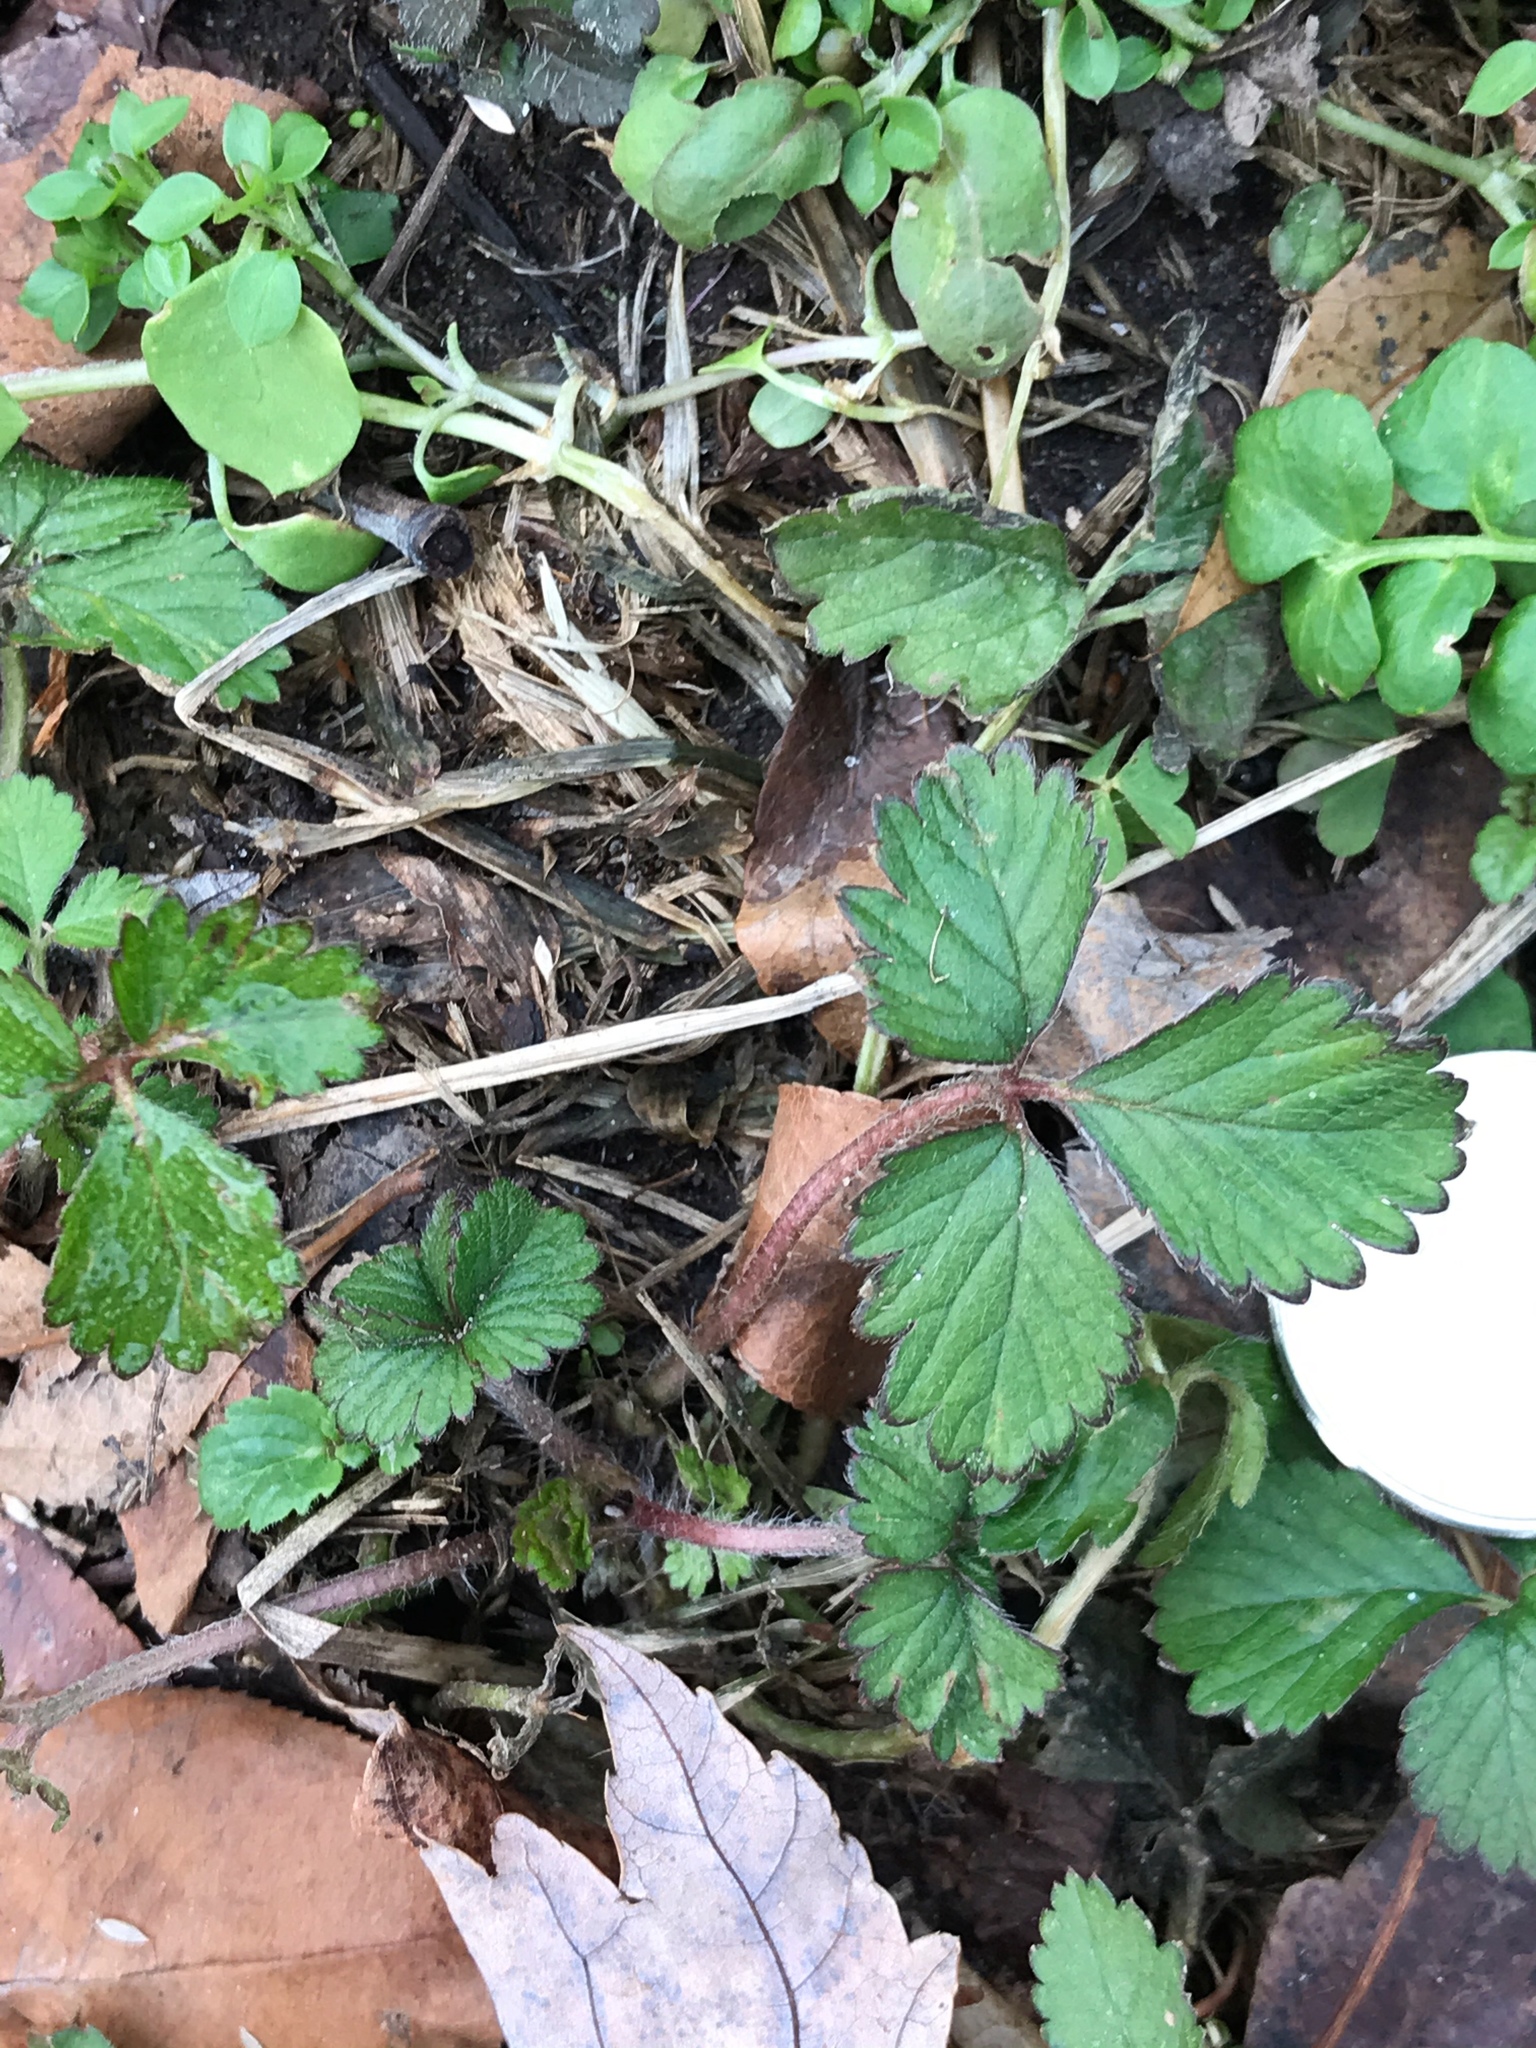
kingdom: Plantae
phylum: Tracheophyta
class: Magnoliopsida
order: Rosales
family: Rosaceae
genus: Potentilla
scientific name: Potentilla indica
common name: Yellow-flowered strawberry
